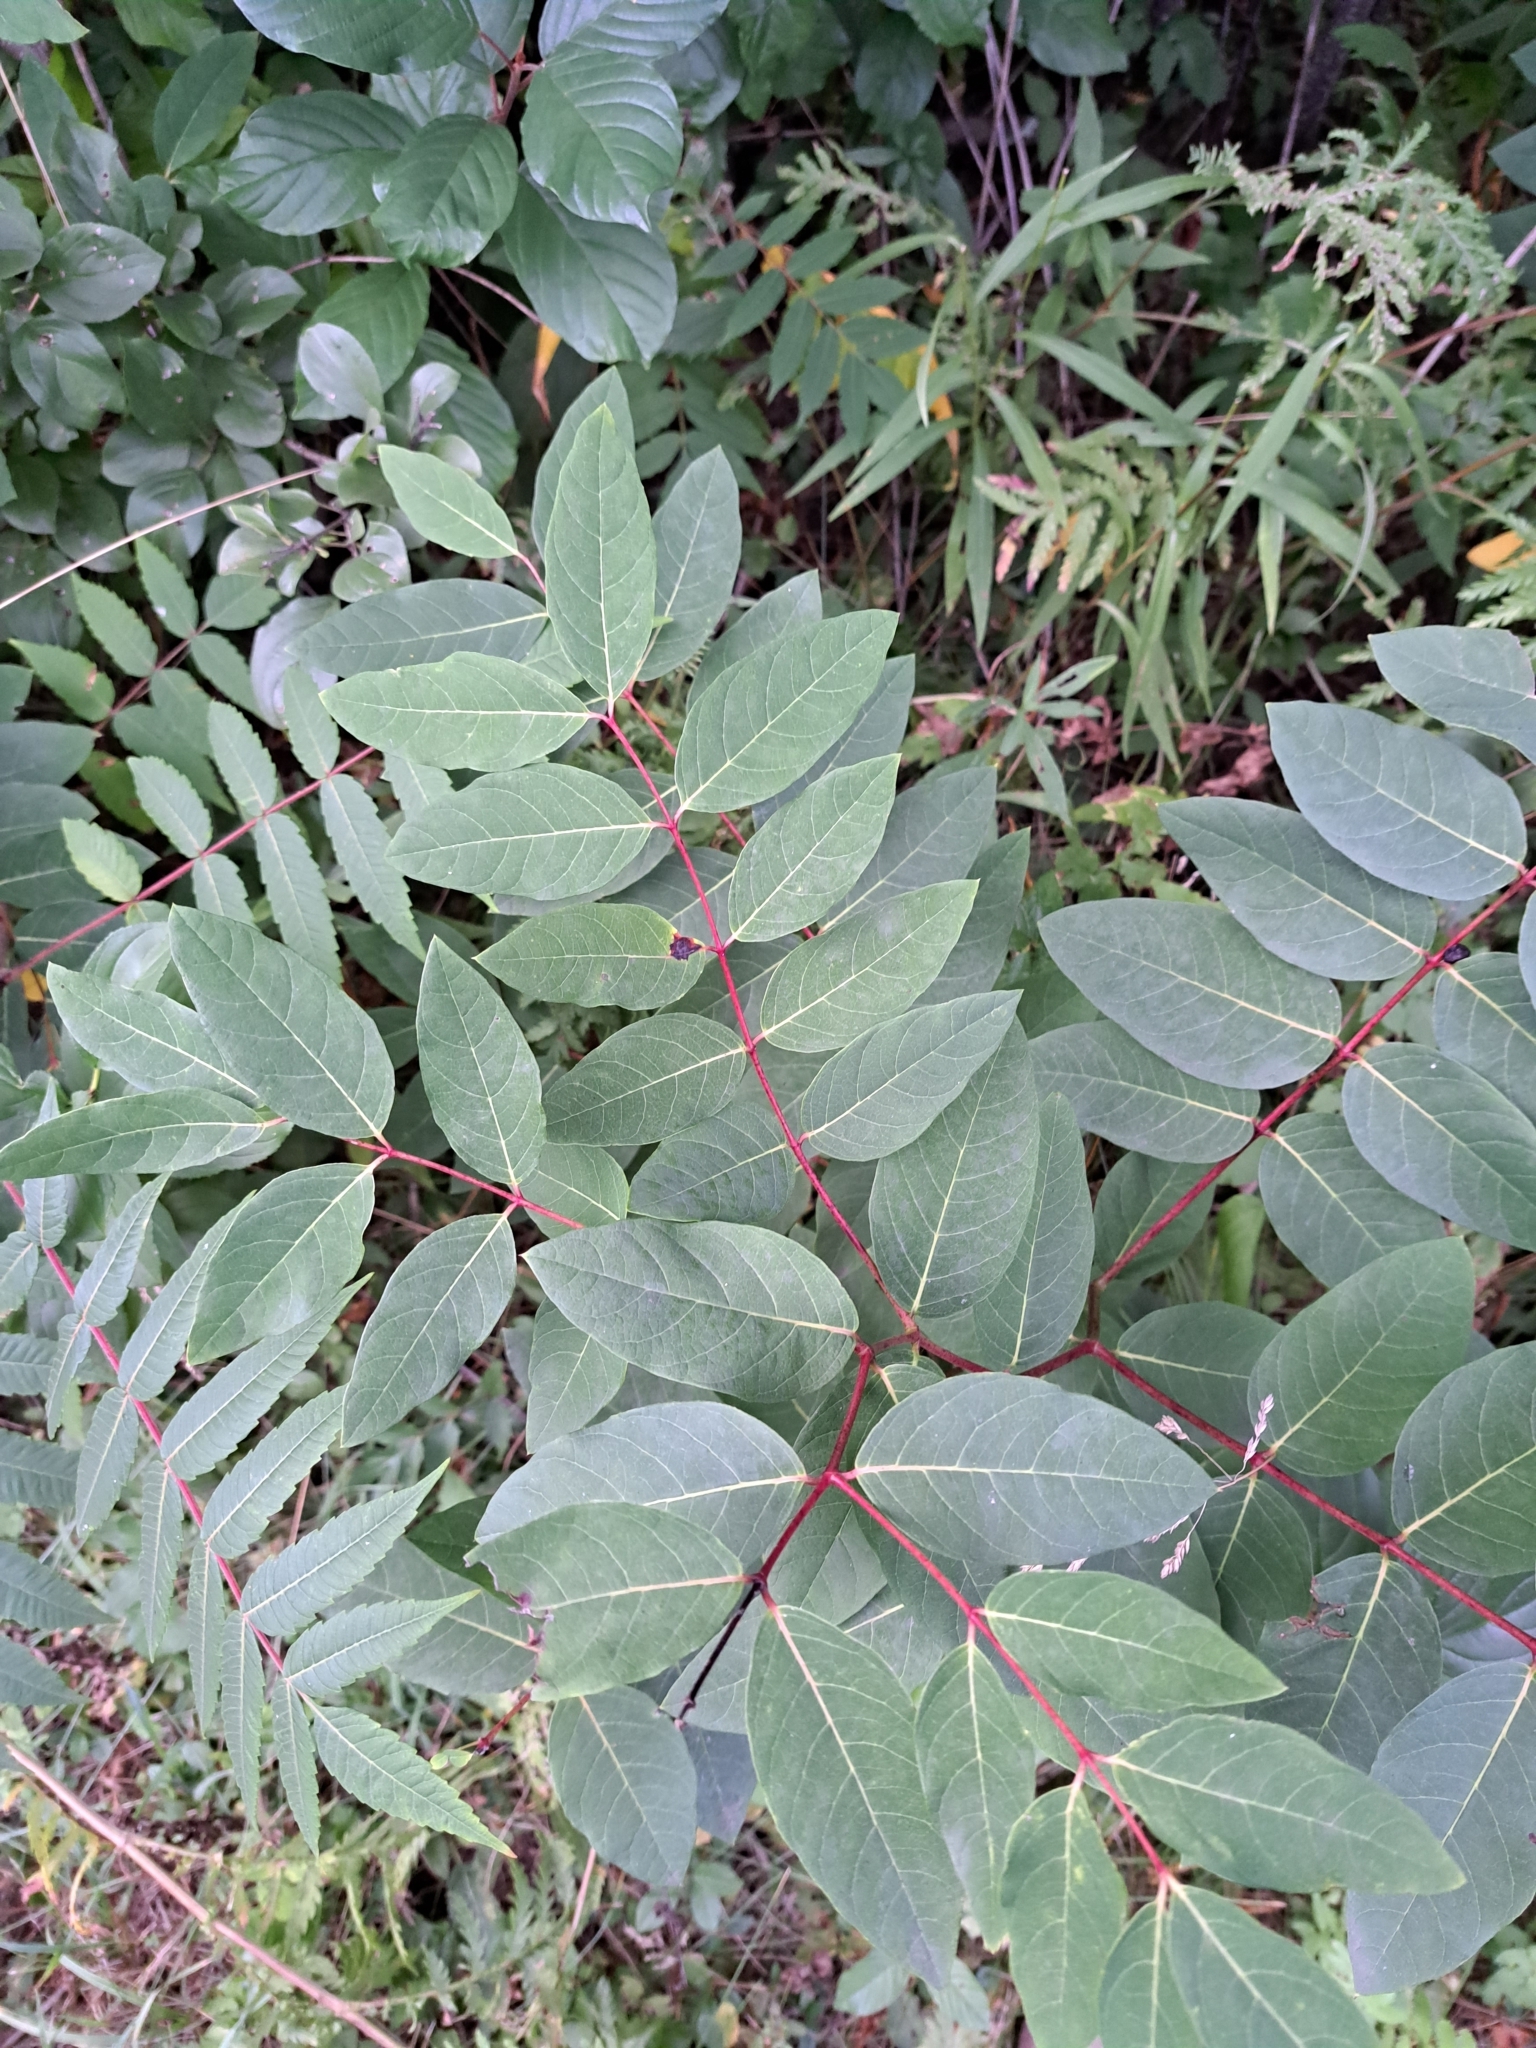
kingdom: Plantae
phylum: Tracheophyta
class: Magnoliopsida
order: Gentianales
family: Apocynaceae
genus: Apocynum
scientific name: Apocynum androsaemifolium
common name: Spreading dogbane
